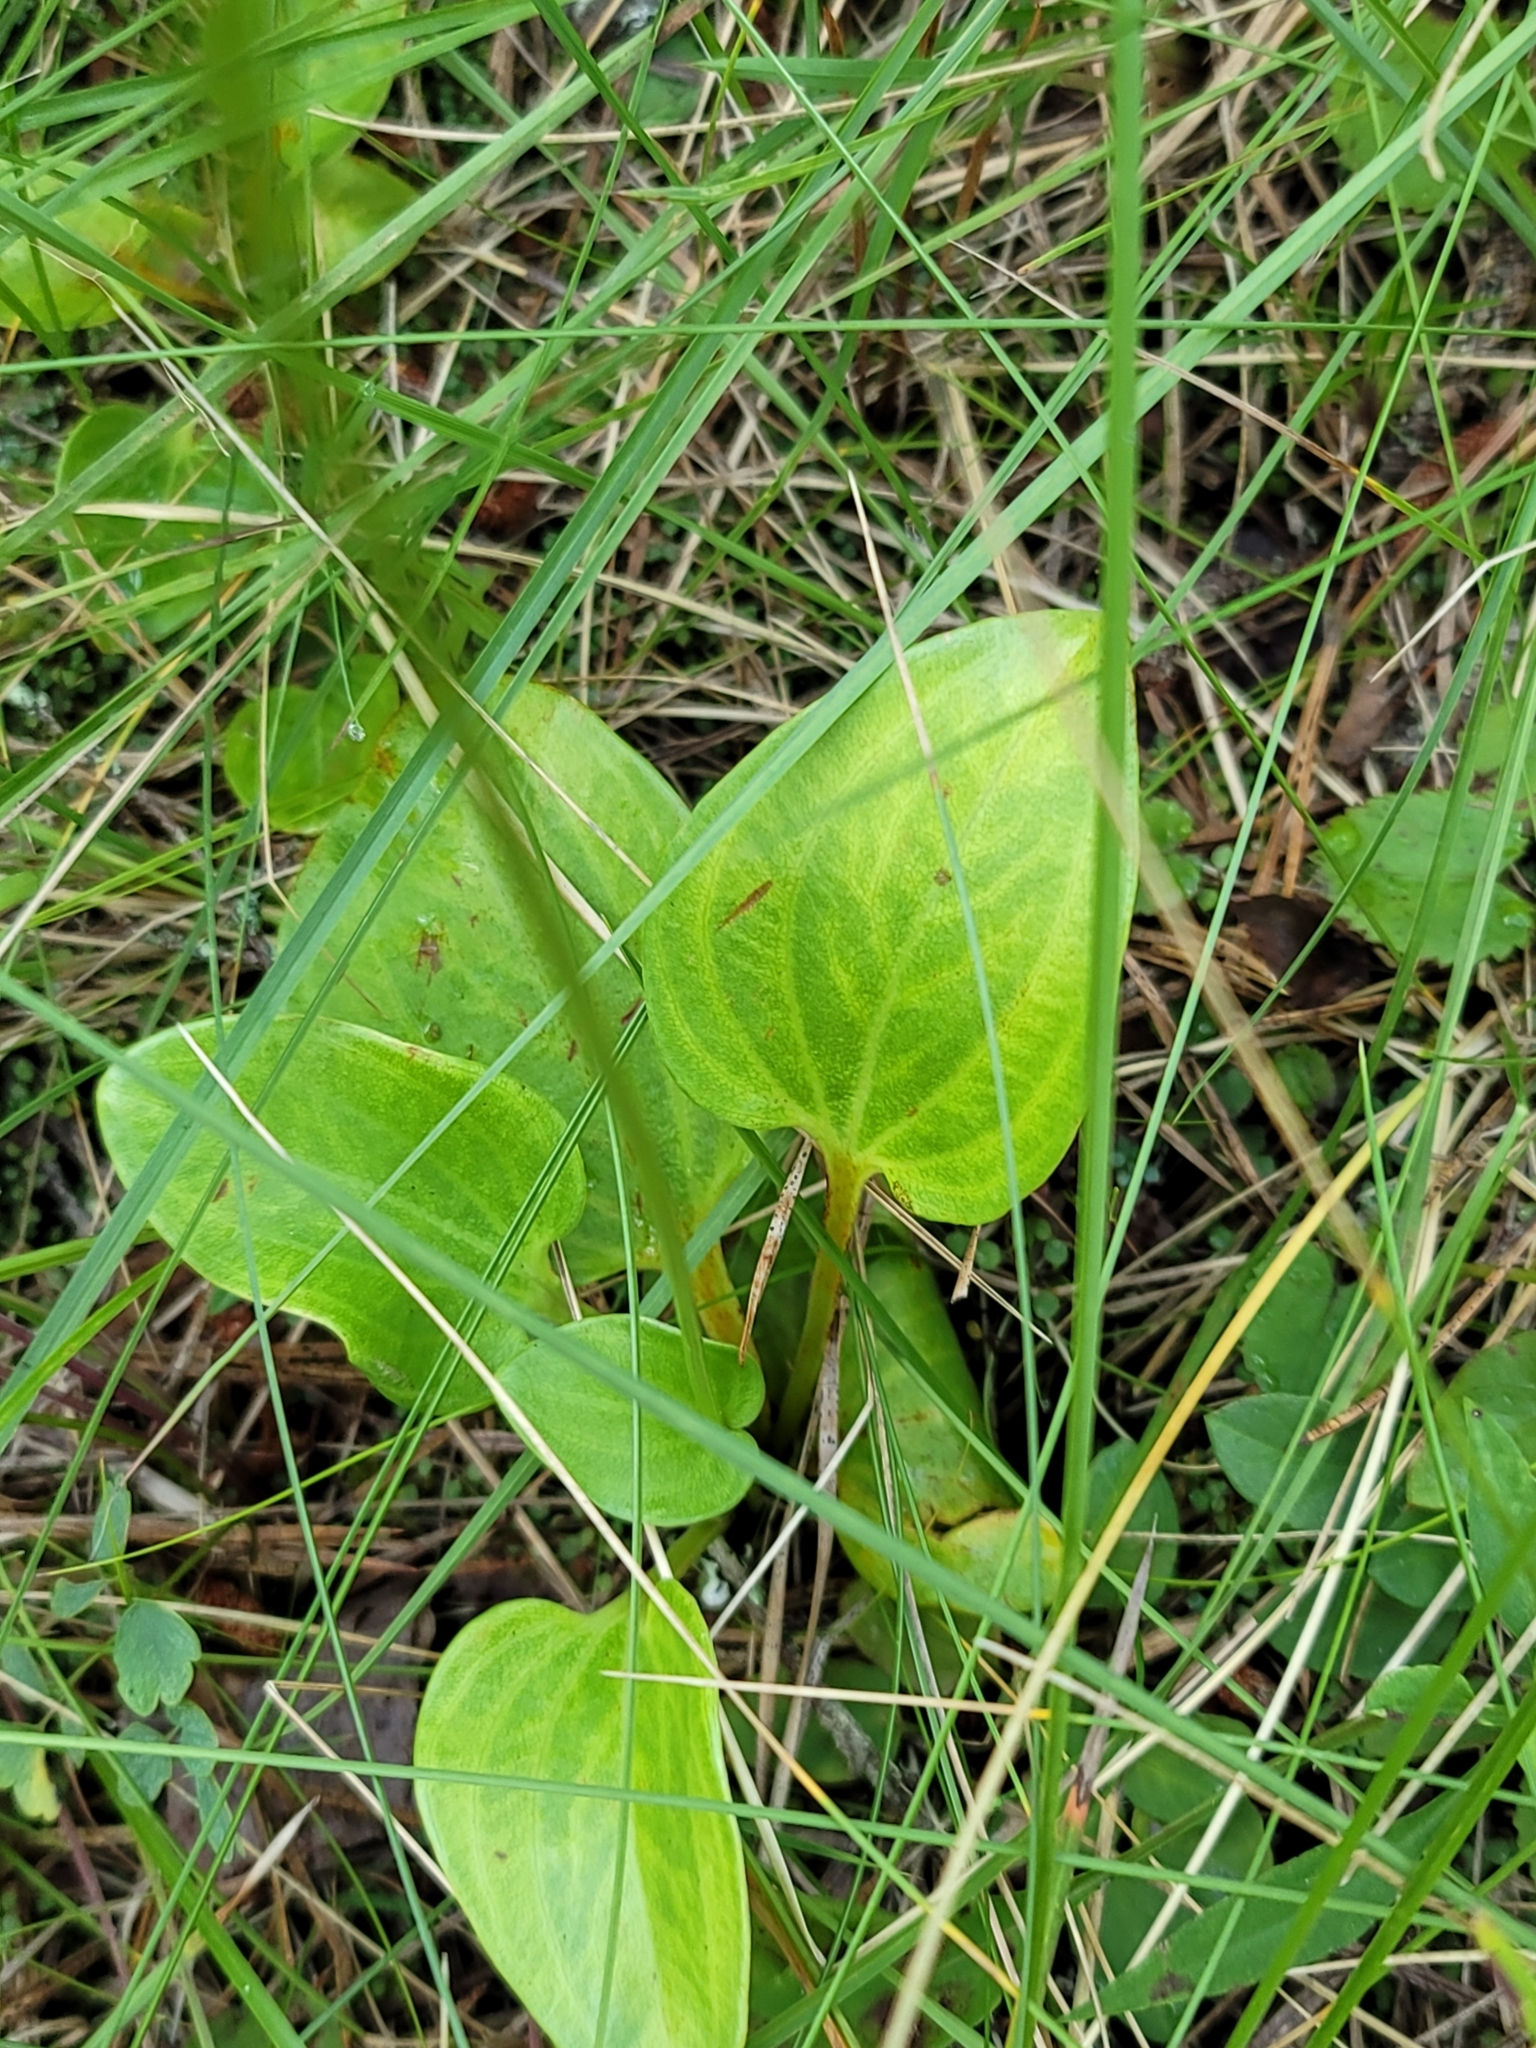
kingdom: Plantae
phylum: Tracheophyta
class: Magnoliopsida
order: Celastrales
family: Parnassiaceae
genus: Parnassia
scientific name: Parnassia grandifolia
